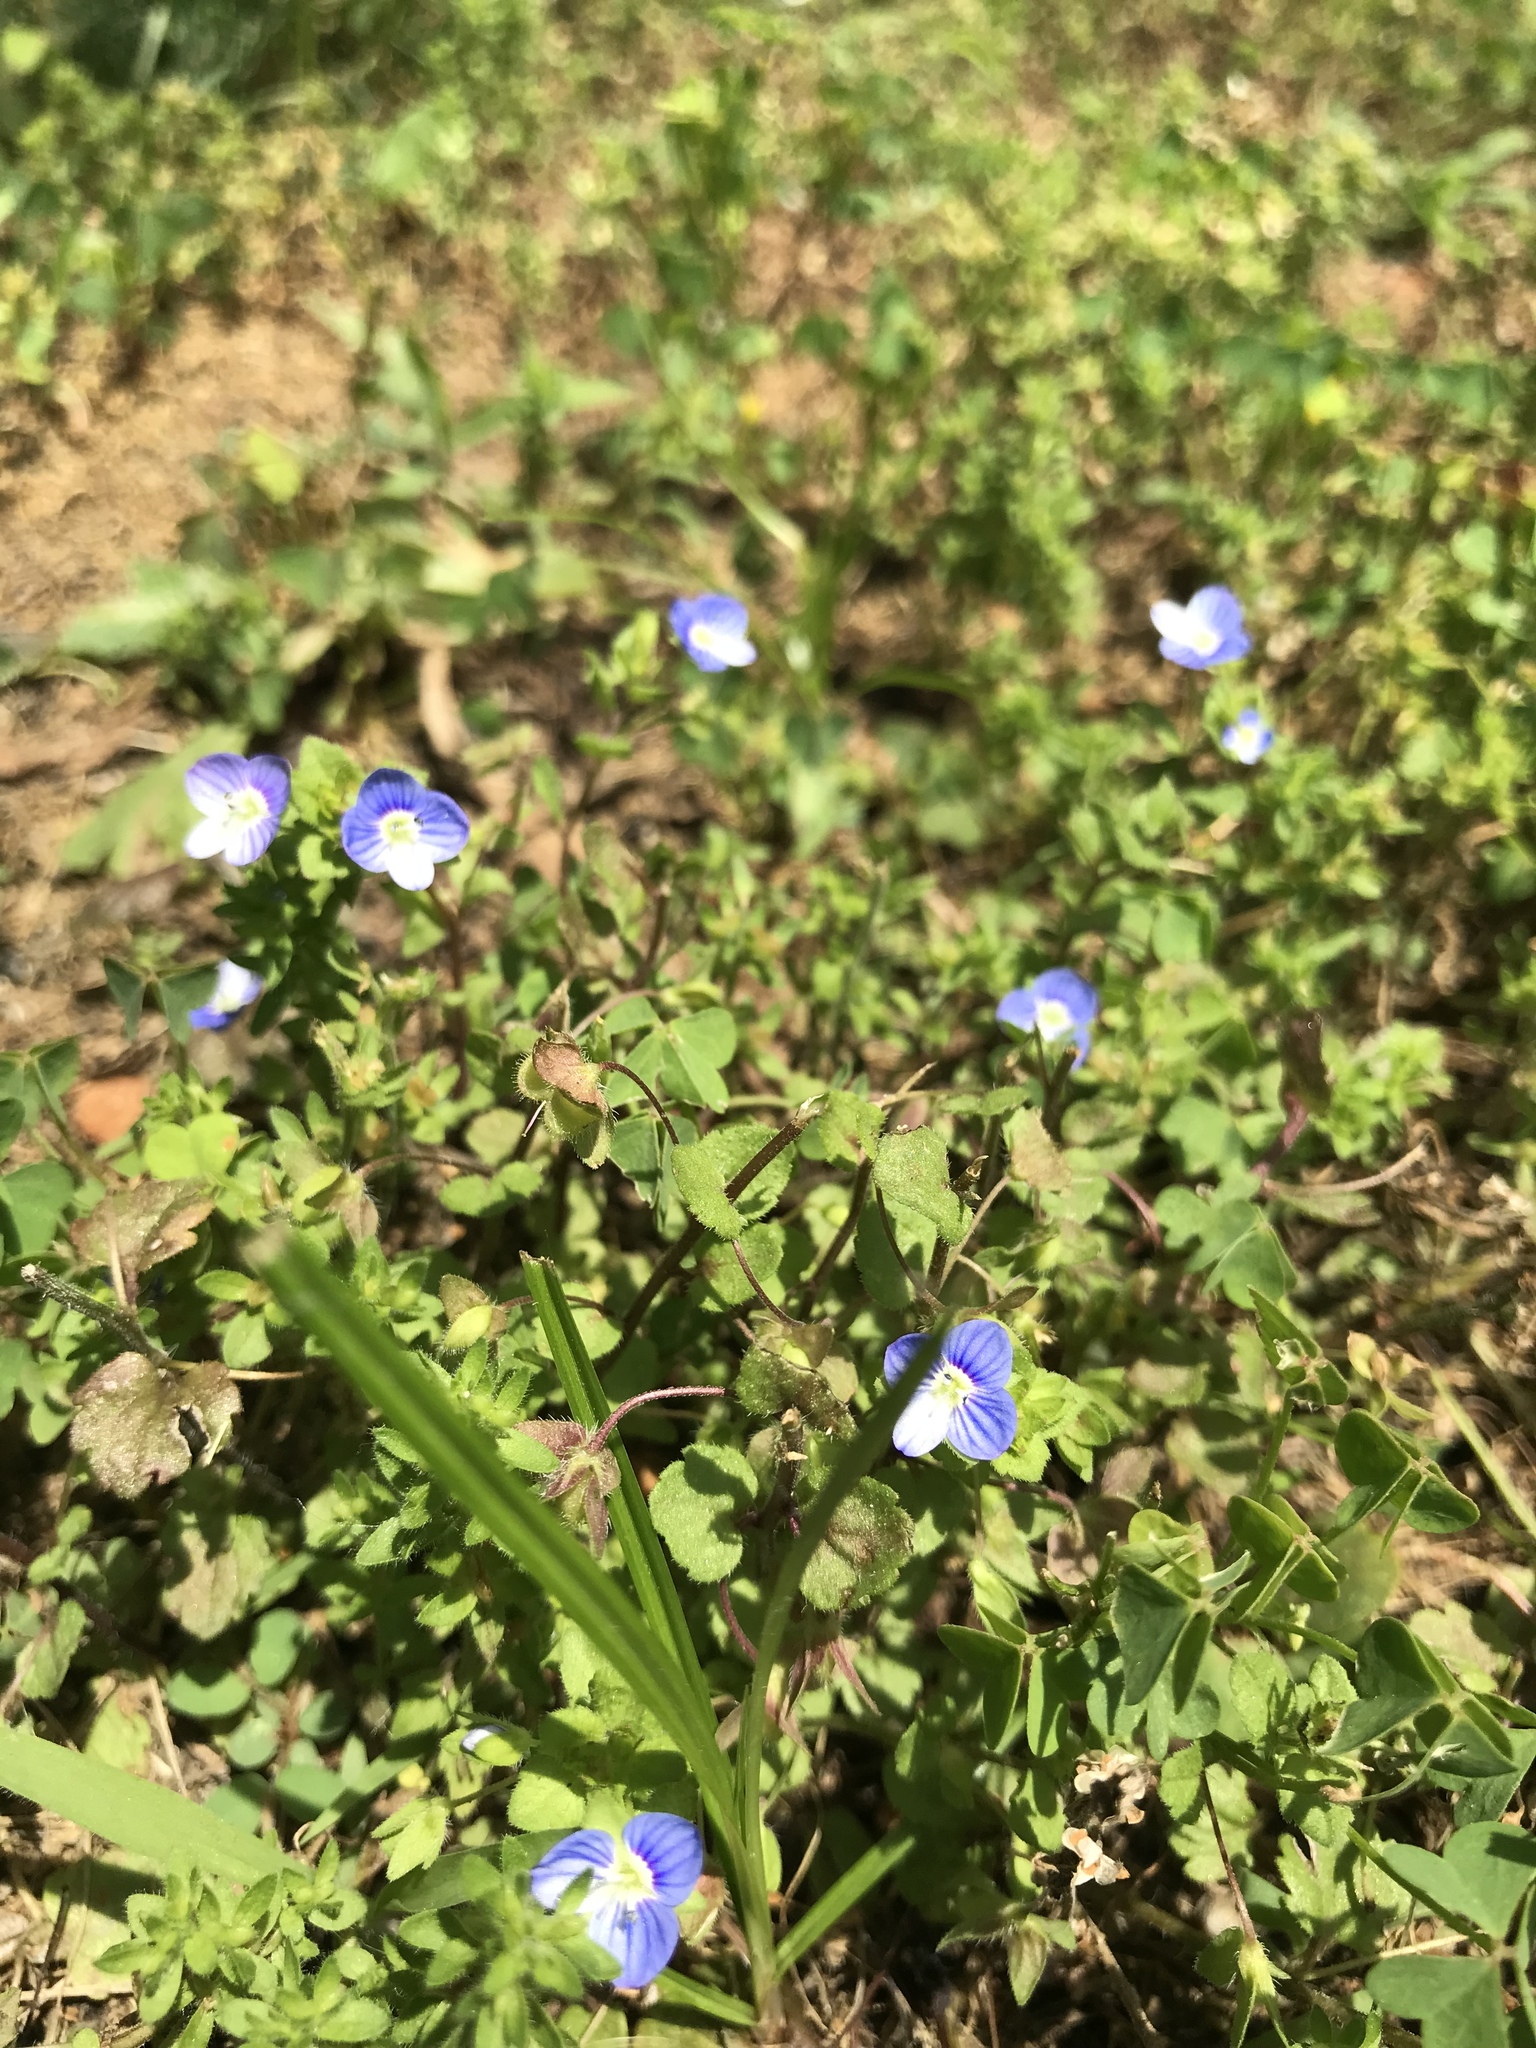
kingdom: Plantae
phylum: Tracheophyta
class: Magnoliopsida
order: Lamiales
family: Plantaginaceae
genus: Veronica
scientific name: Veronica persica
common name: Common field-speedwell
